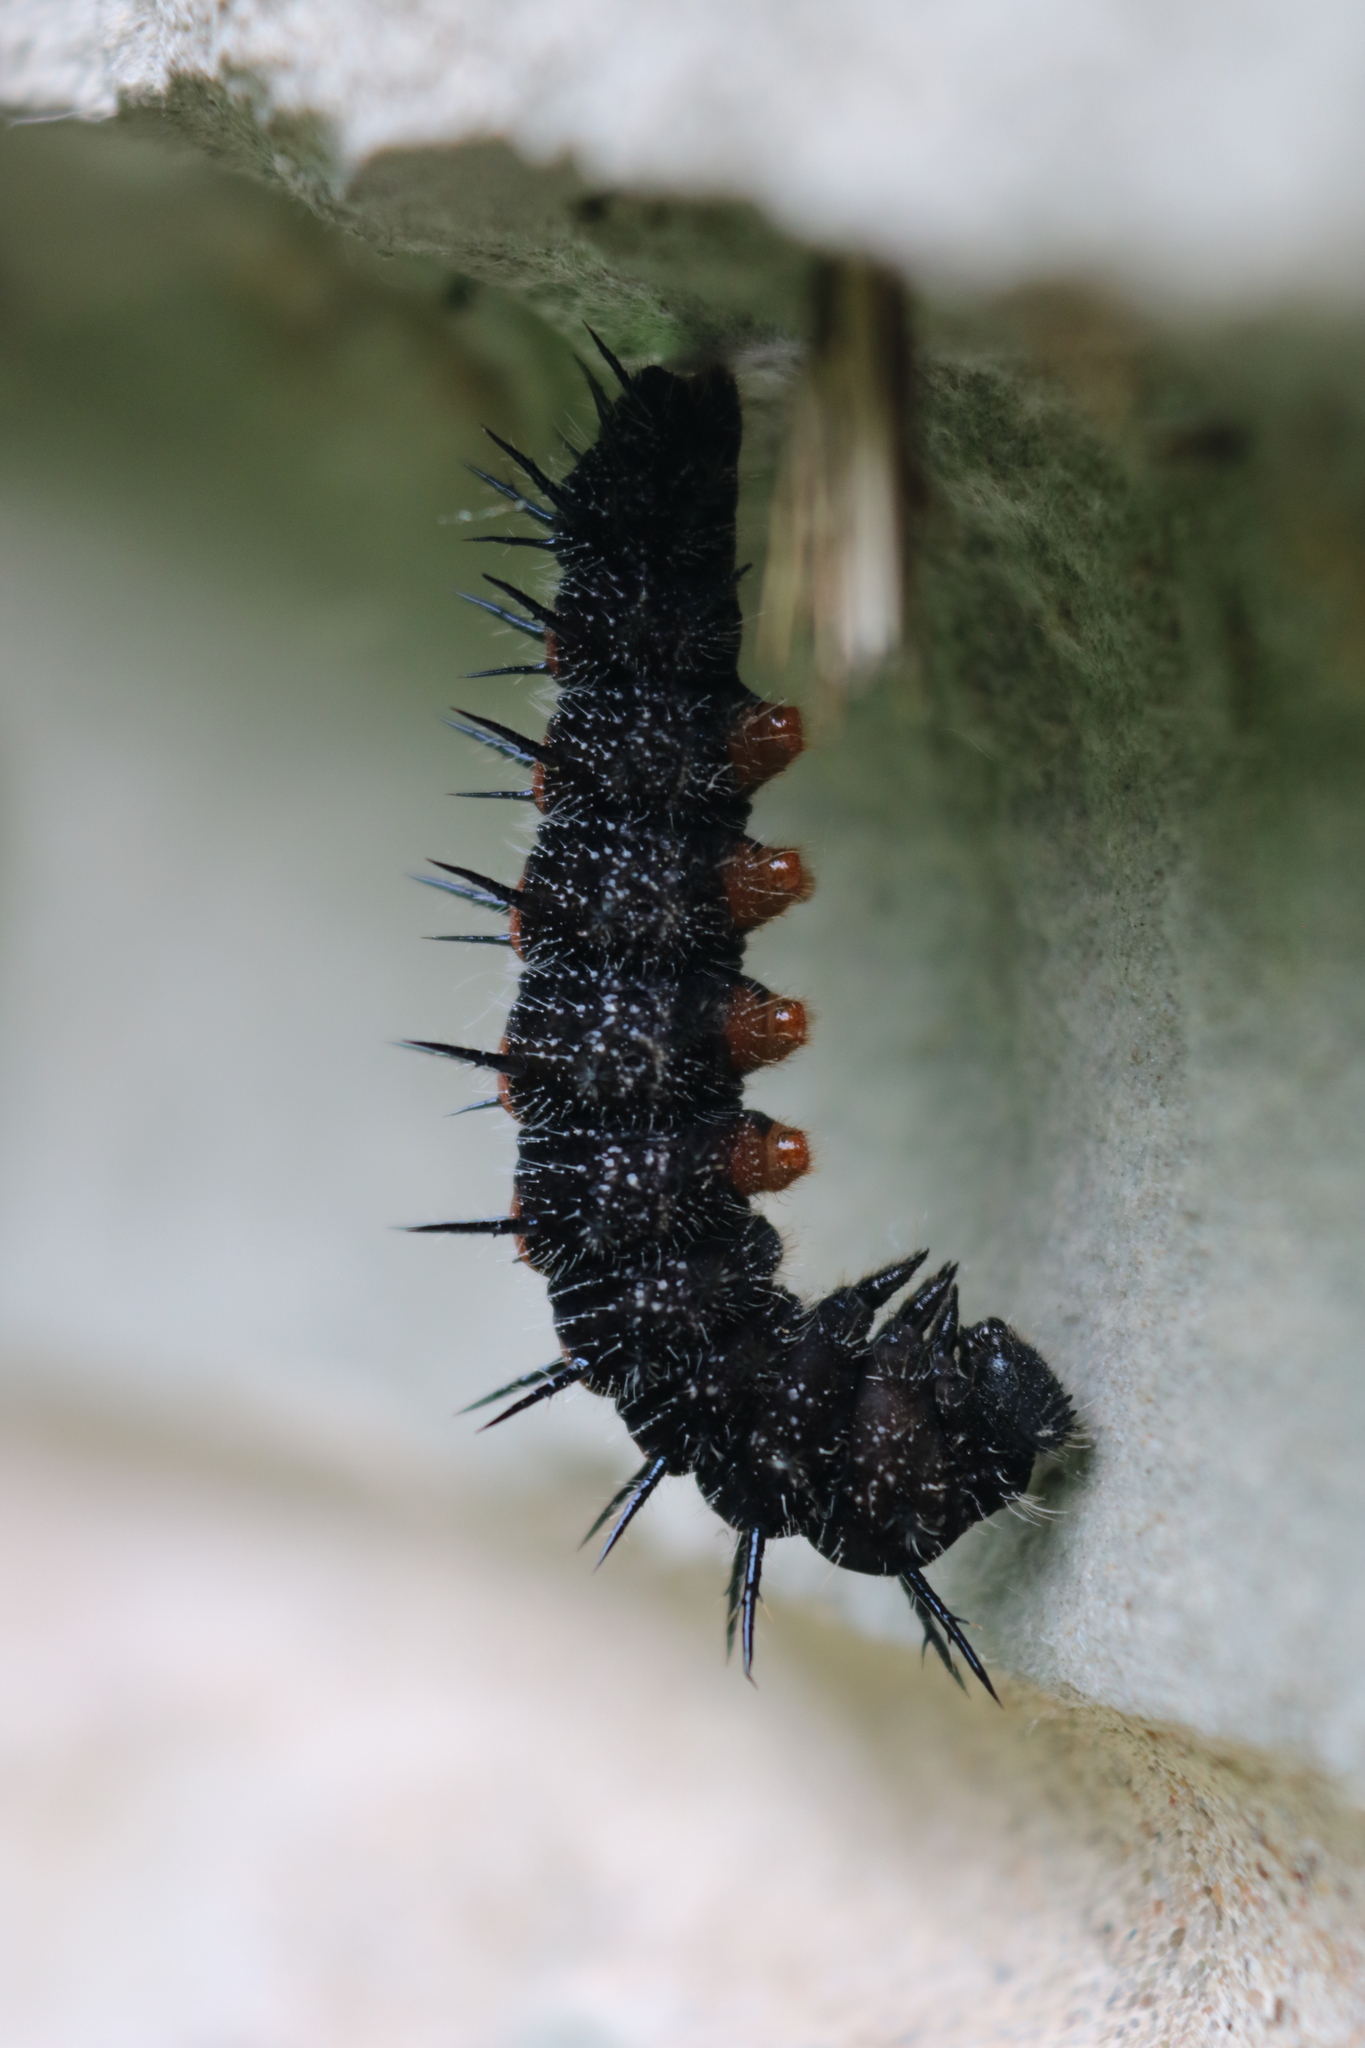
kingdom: Animalia
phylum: Arthropoda
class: Insecta
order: Lepidoptera
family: Nymphalidae
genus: Nymphalis
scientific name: Nymphalis antiopa
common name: Camberwell beauty
